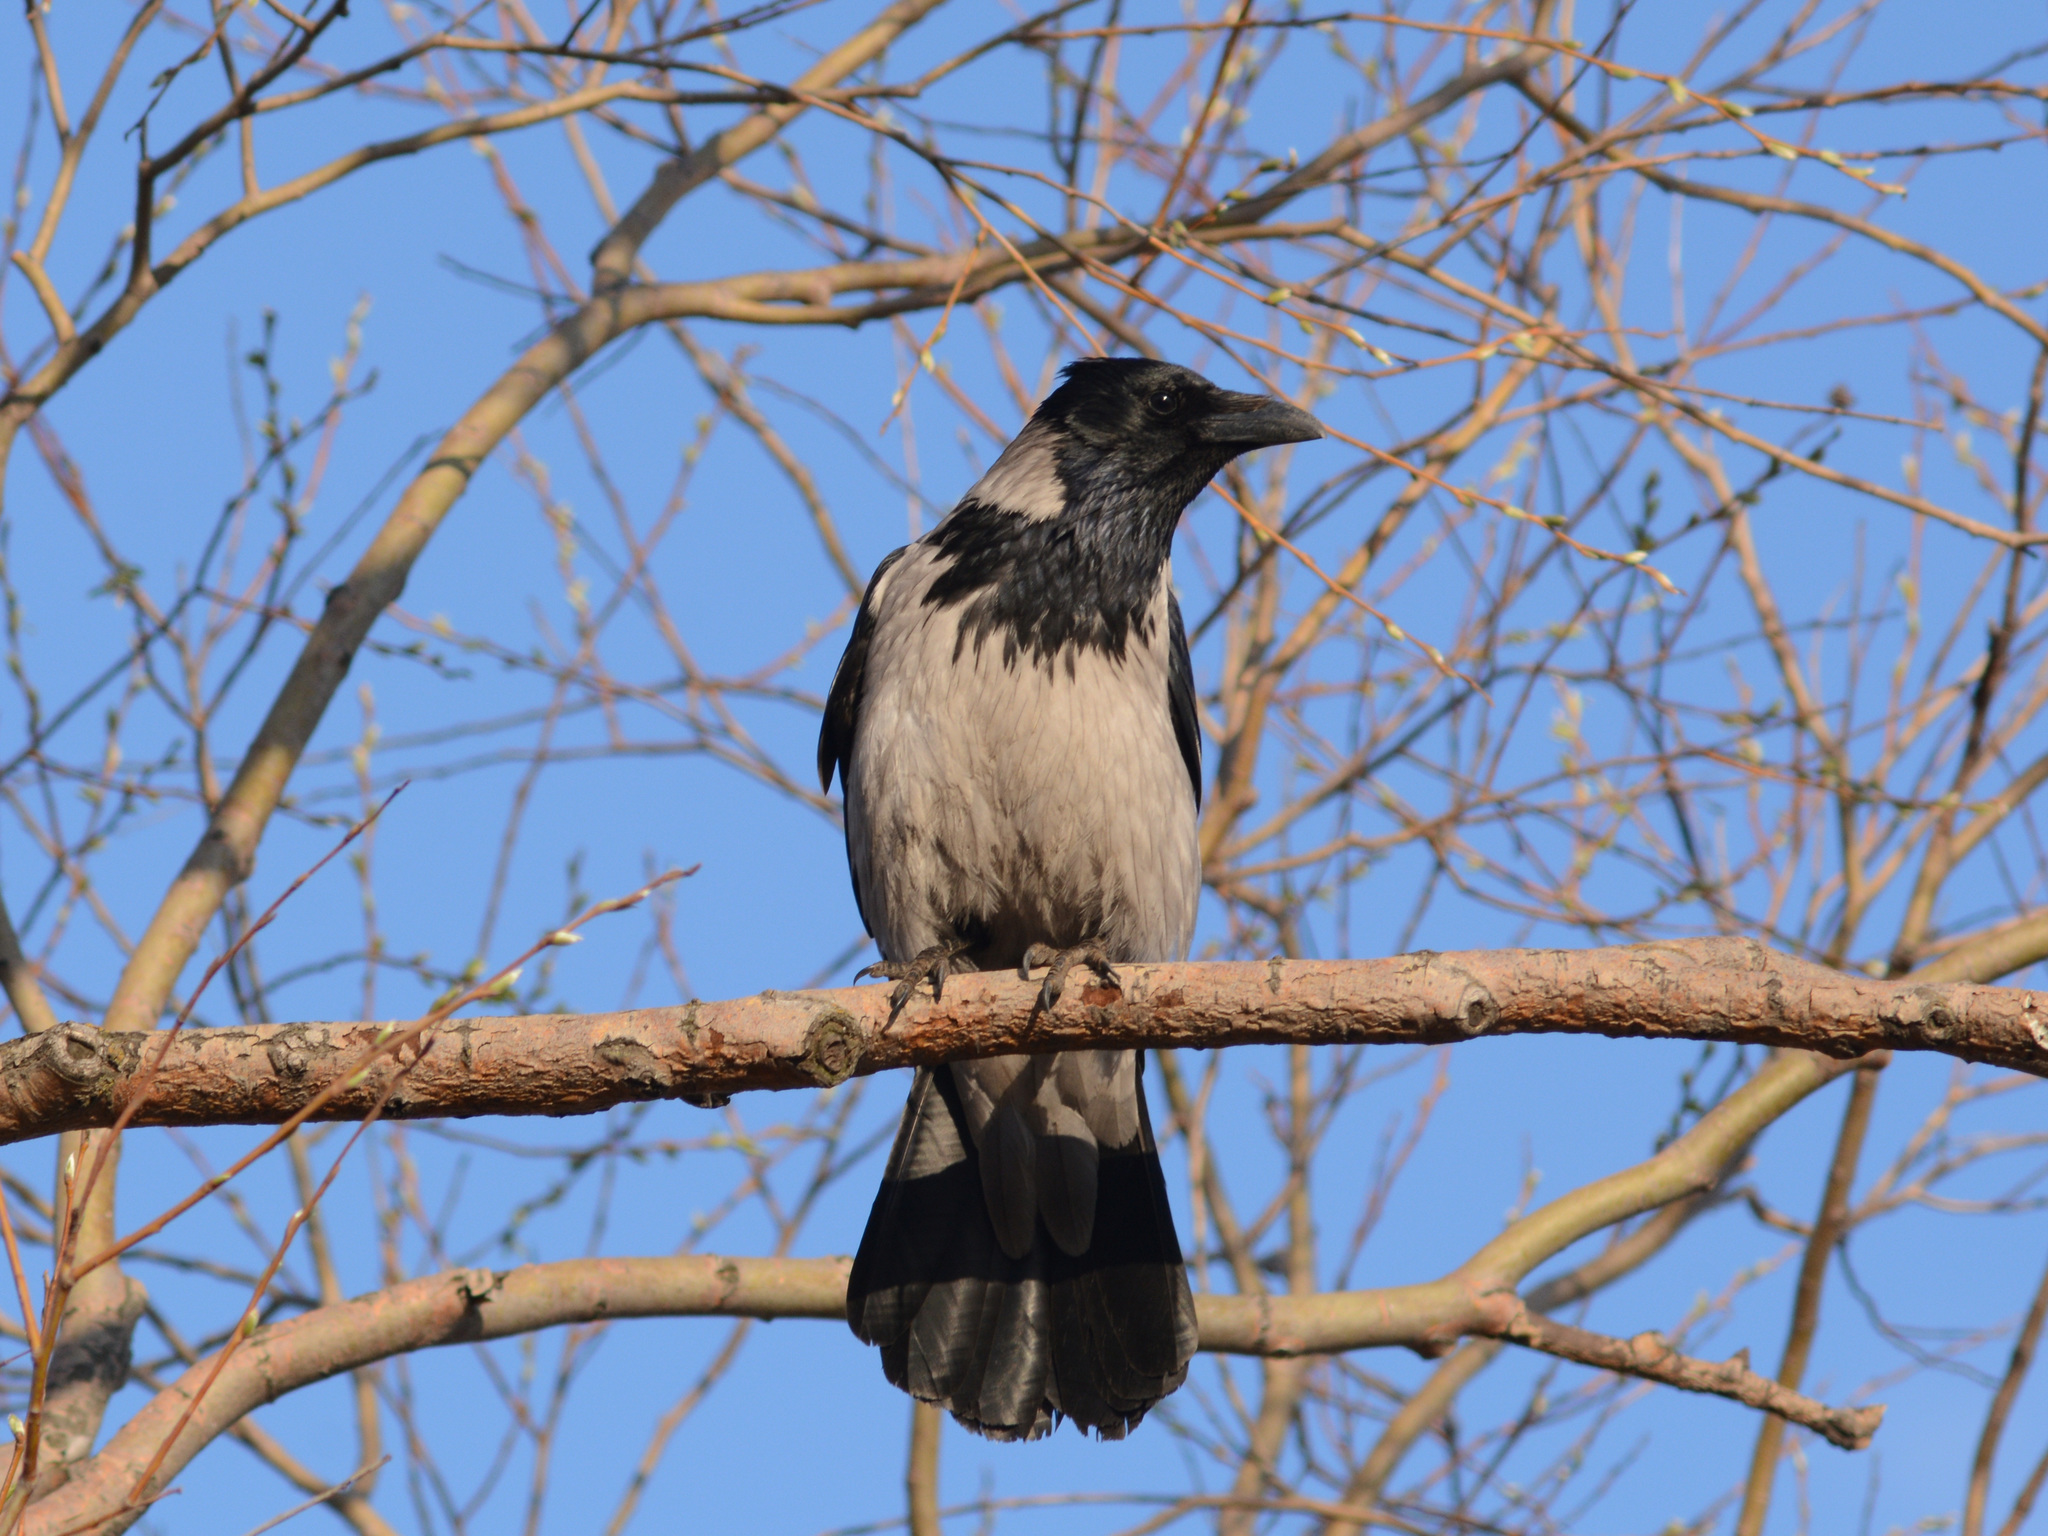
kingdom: Animalia
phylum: Chordata
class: Aves
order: Passeriformes
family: Corvidae
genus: Corvus
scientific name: Corvus cornix
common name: Hooded crow
